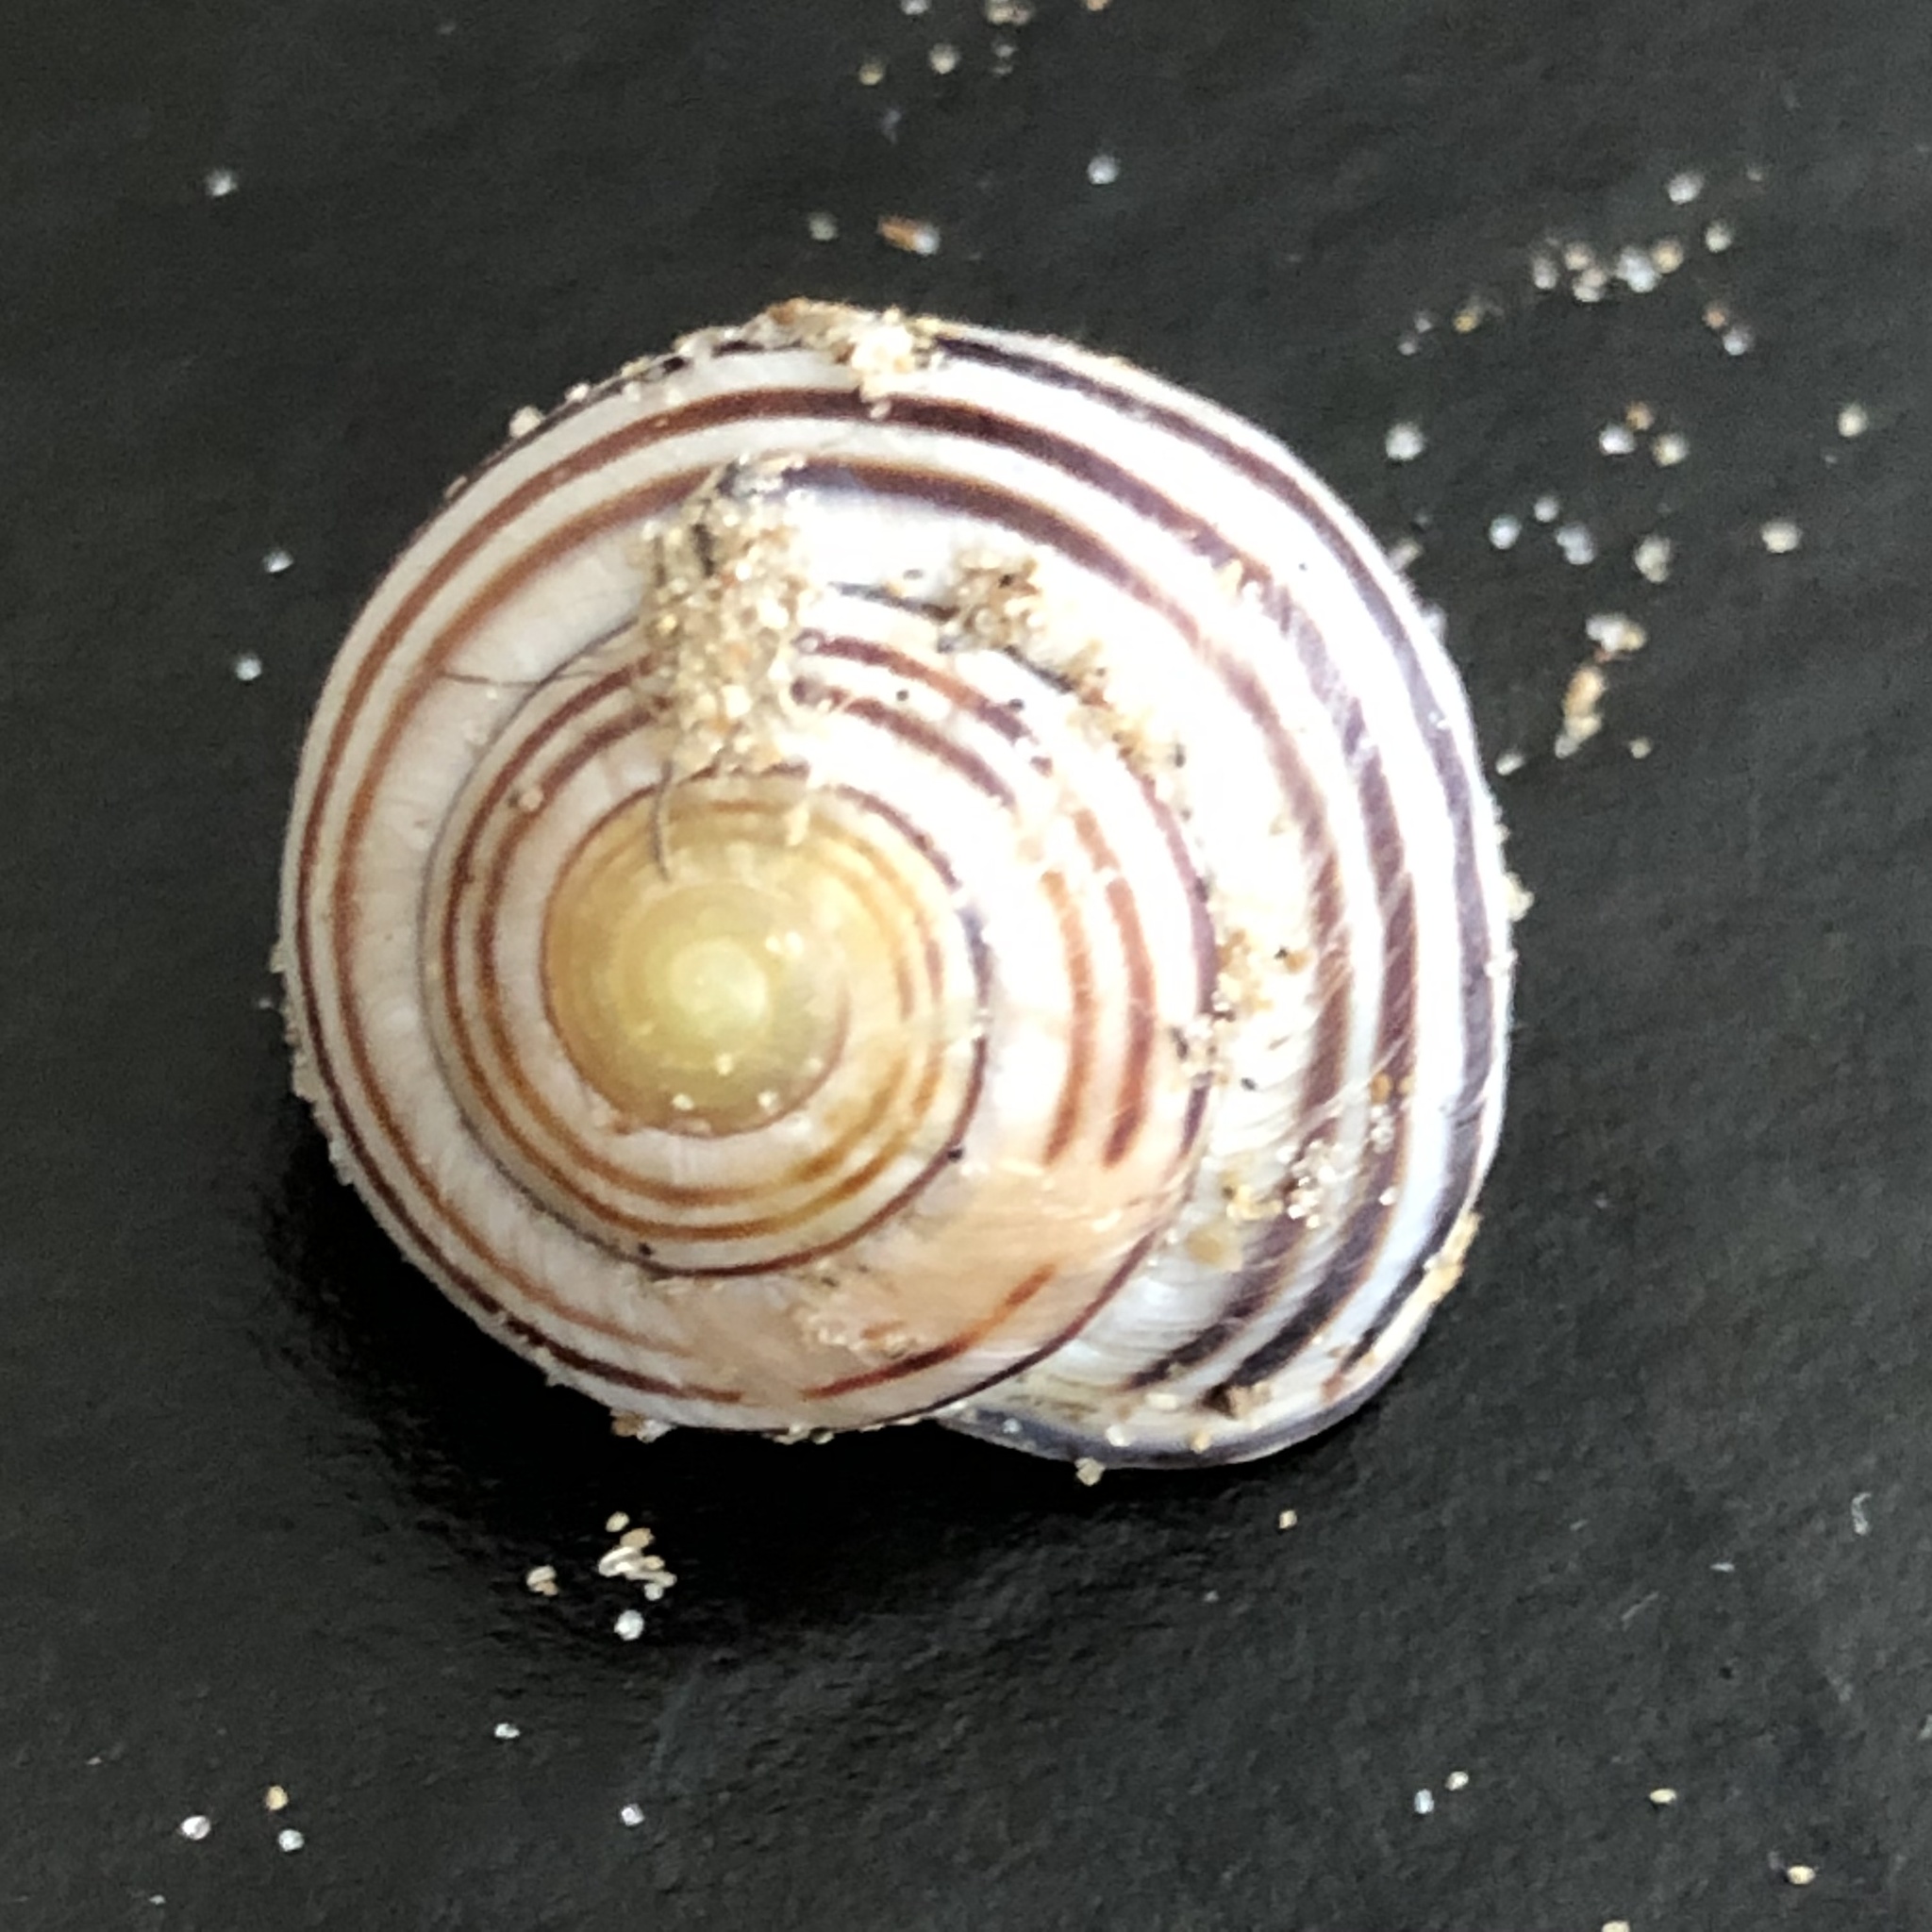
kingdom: Animalia
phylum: Mollusca
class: Gastropoda
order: Stylommatophora
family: Helicidae
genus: Cepaea
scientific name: Cepaea nemoralis
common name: Grovesnail
